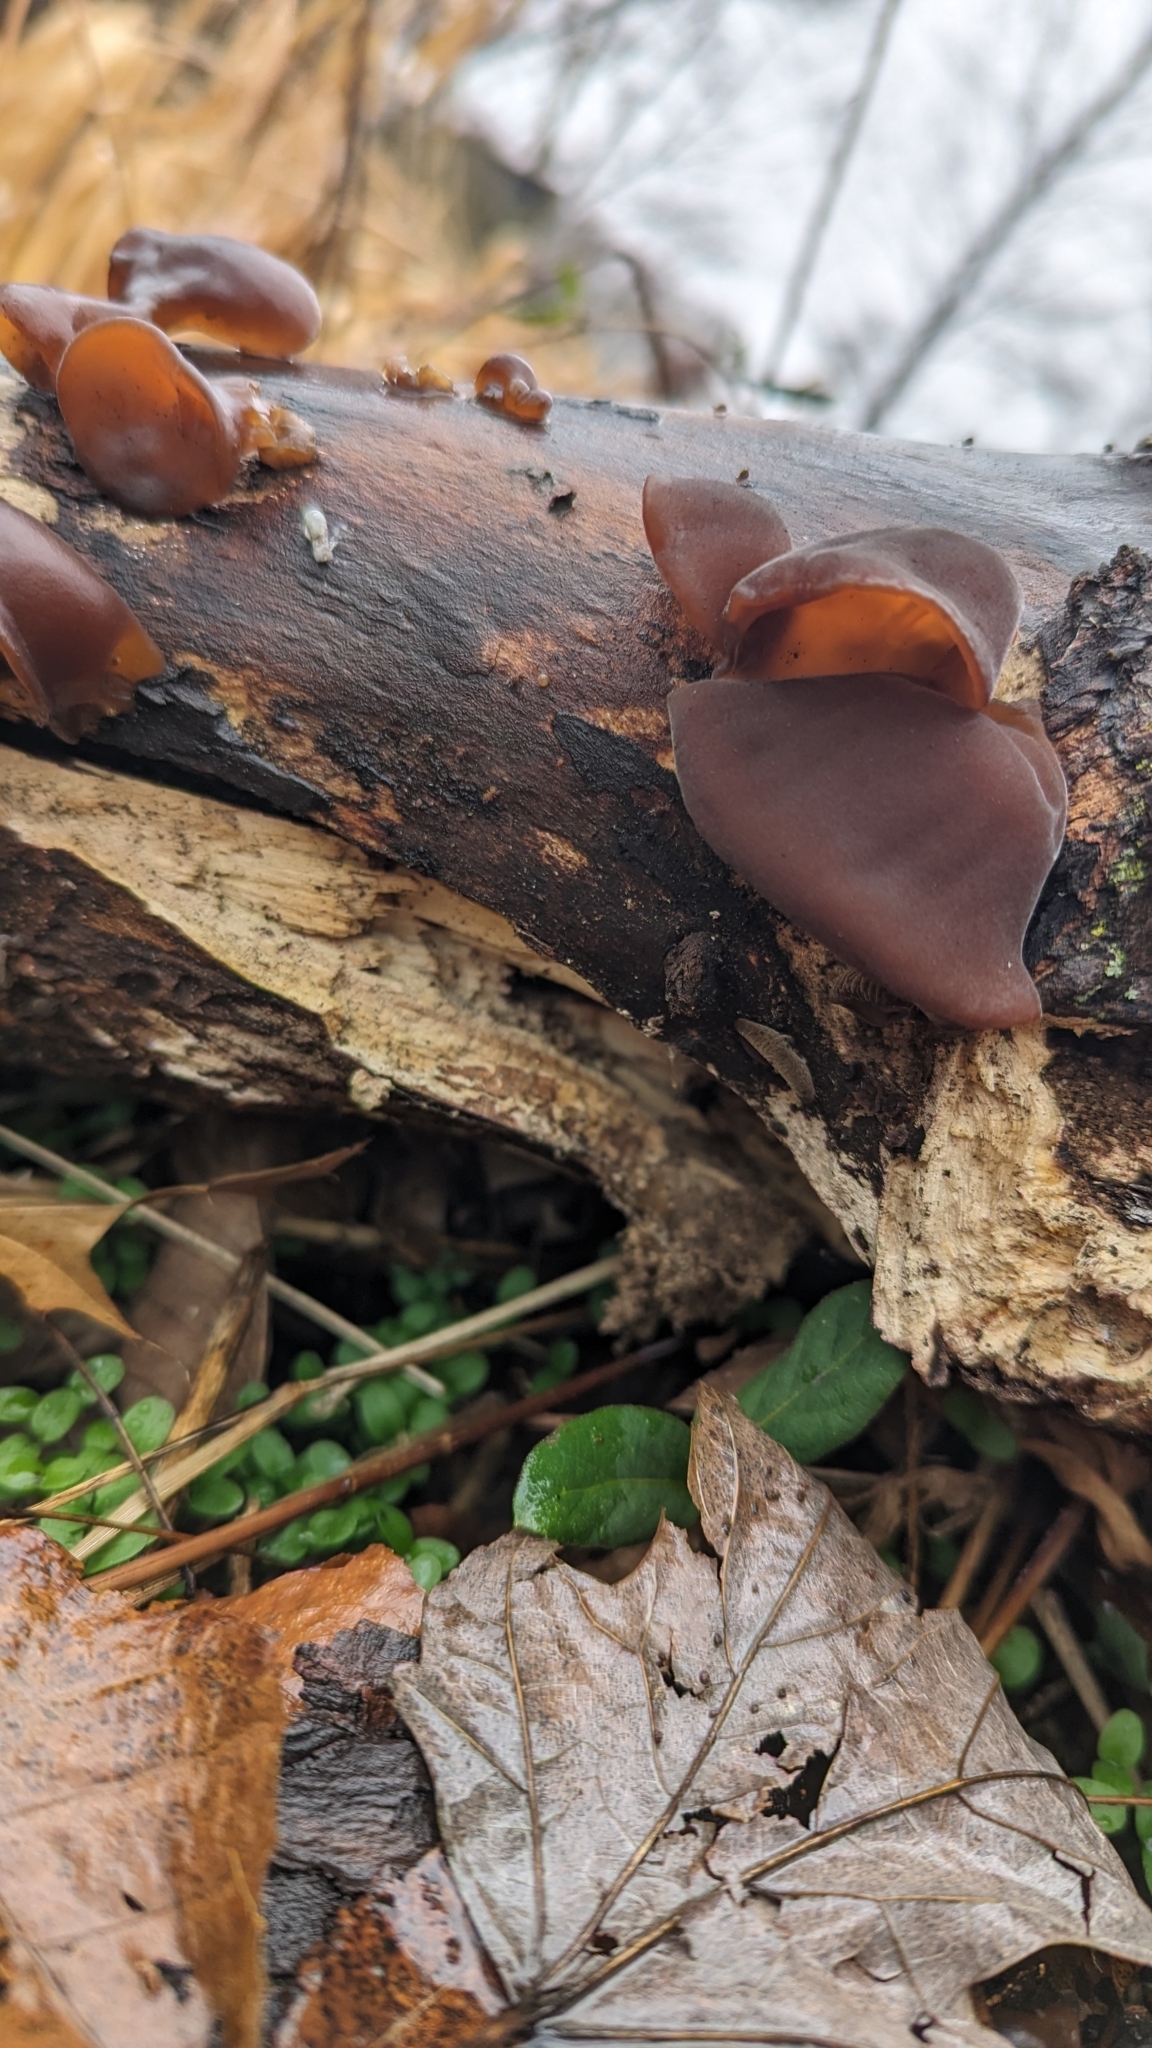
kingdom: Fungi
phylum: Basidiomycota
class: Agaricomycetes
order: Auriculariales
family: Auriculariaceae
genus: Exidia
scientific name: Exidia recisa
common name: Amber jelly
